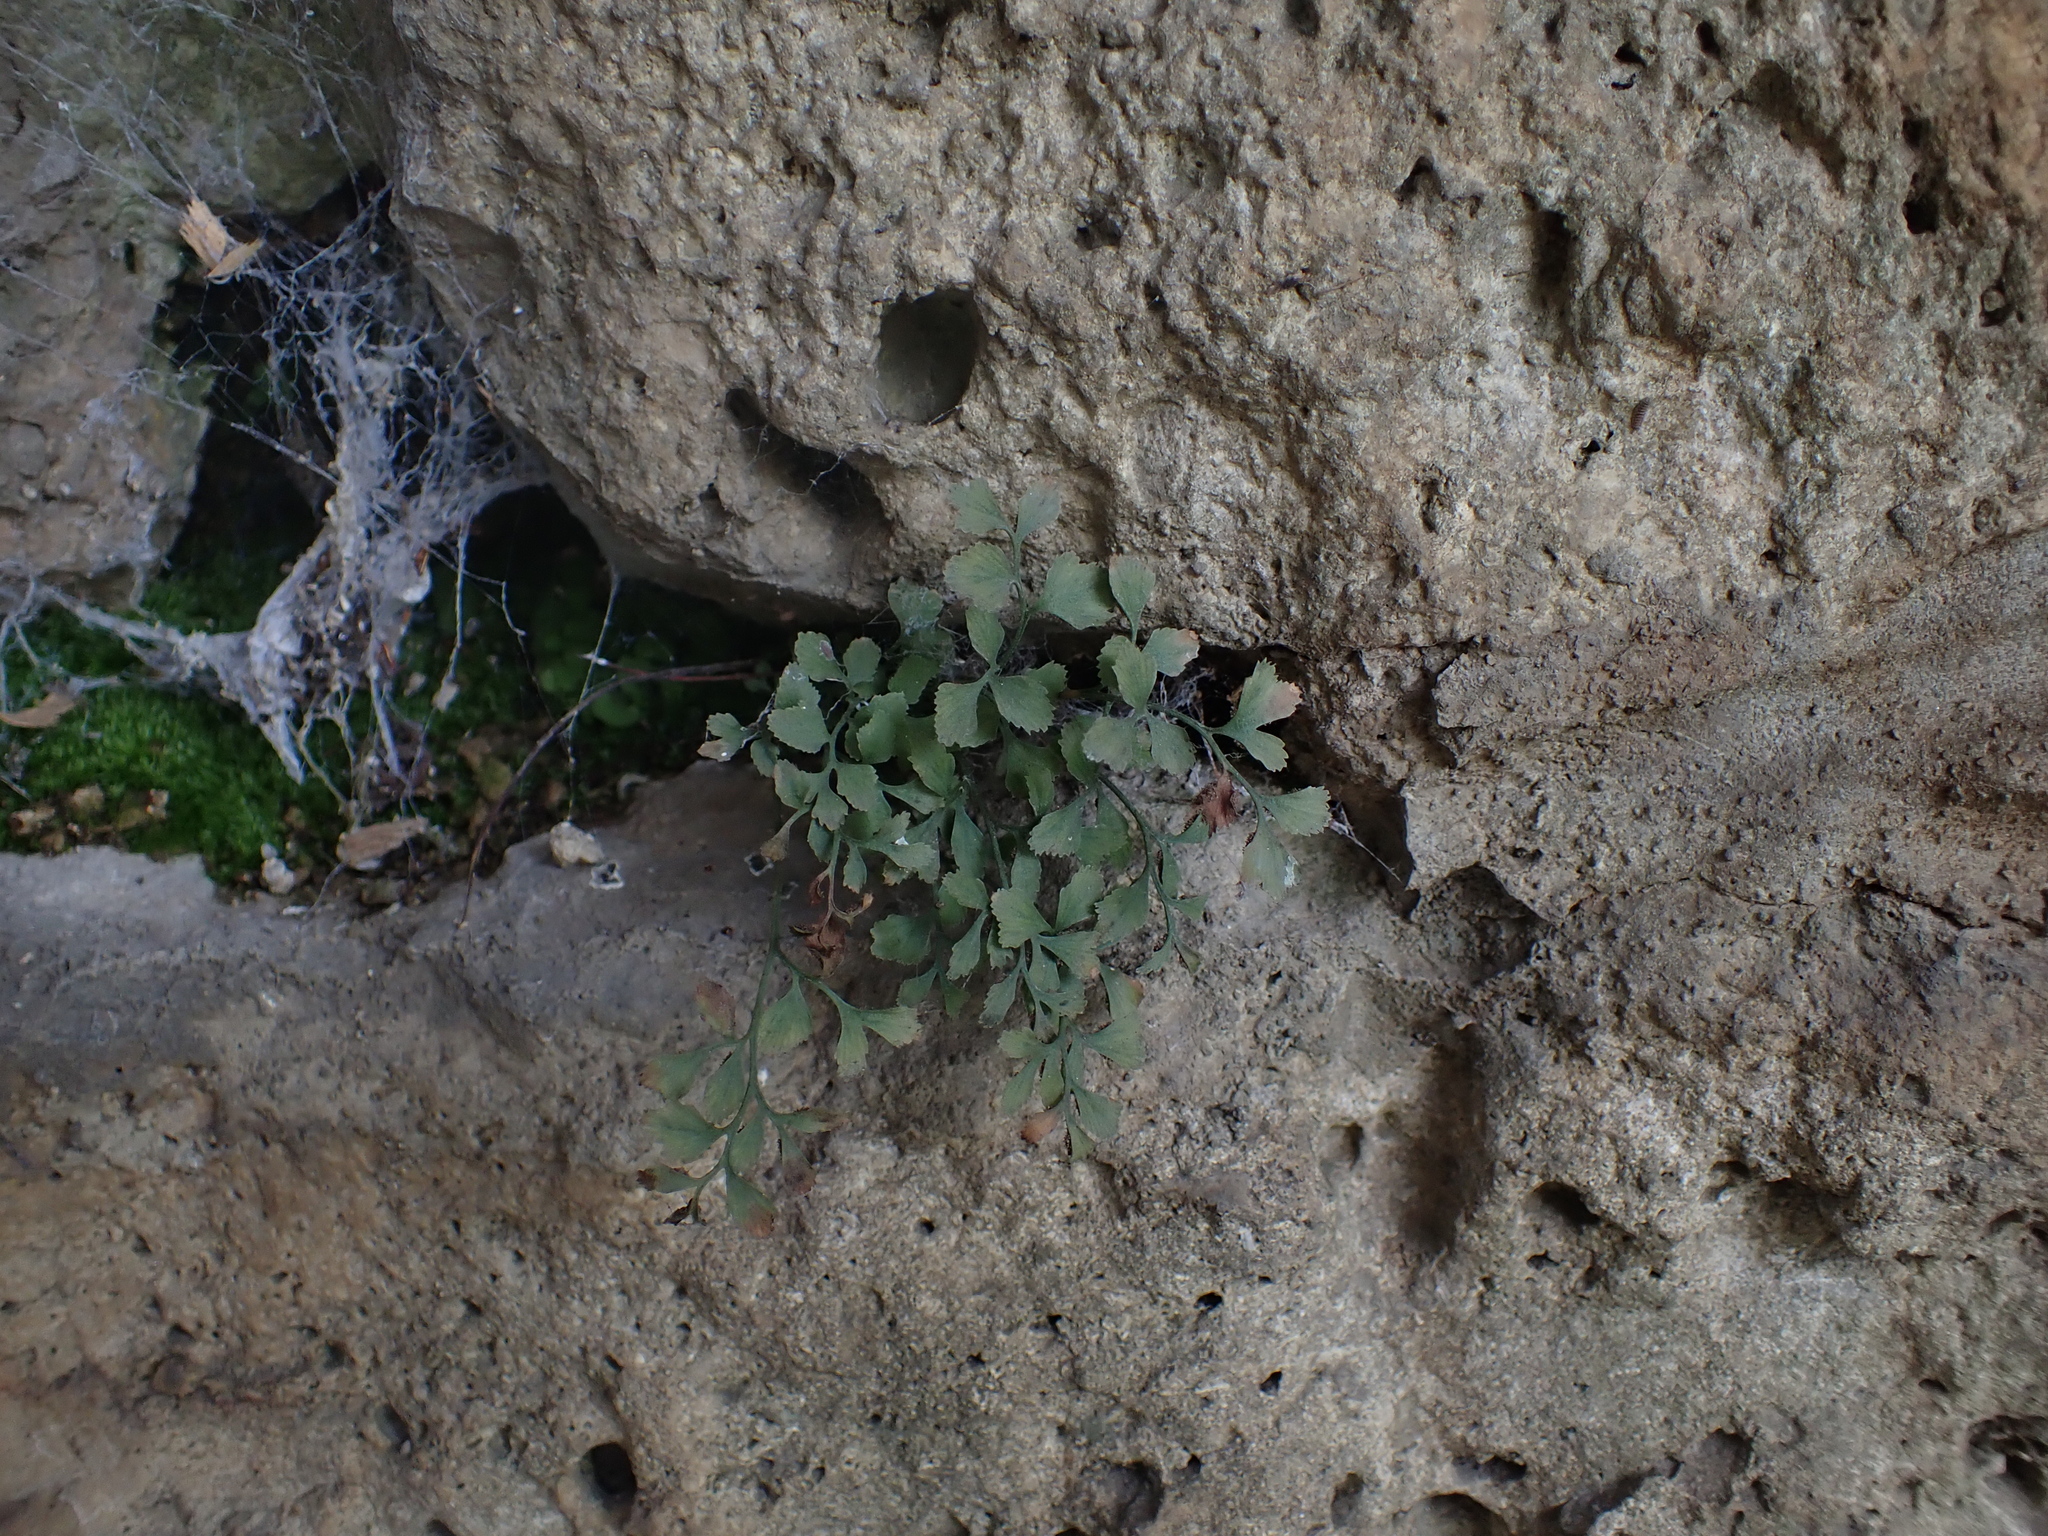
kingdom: Plantae
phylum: Tracheophyta
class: Polypodiopsida
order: Polypodiales
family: Aspleniaceae
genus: Asplenium
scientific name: Asplenium ruta-muraria
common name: Wall-rue
